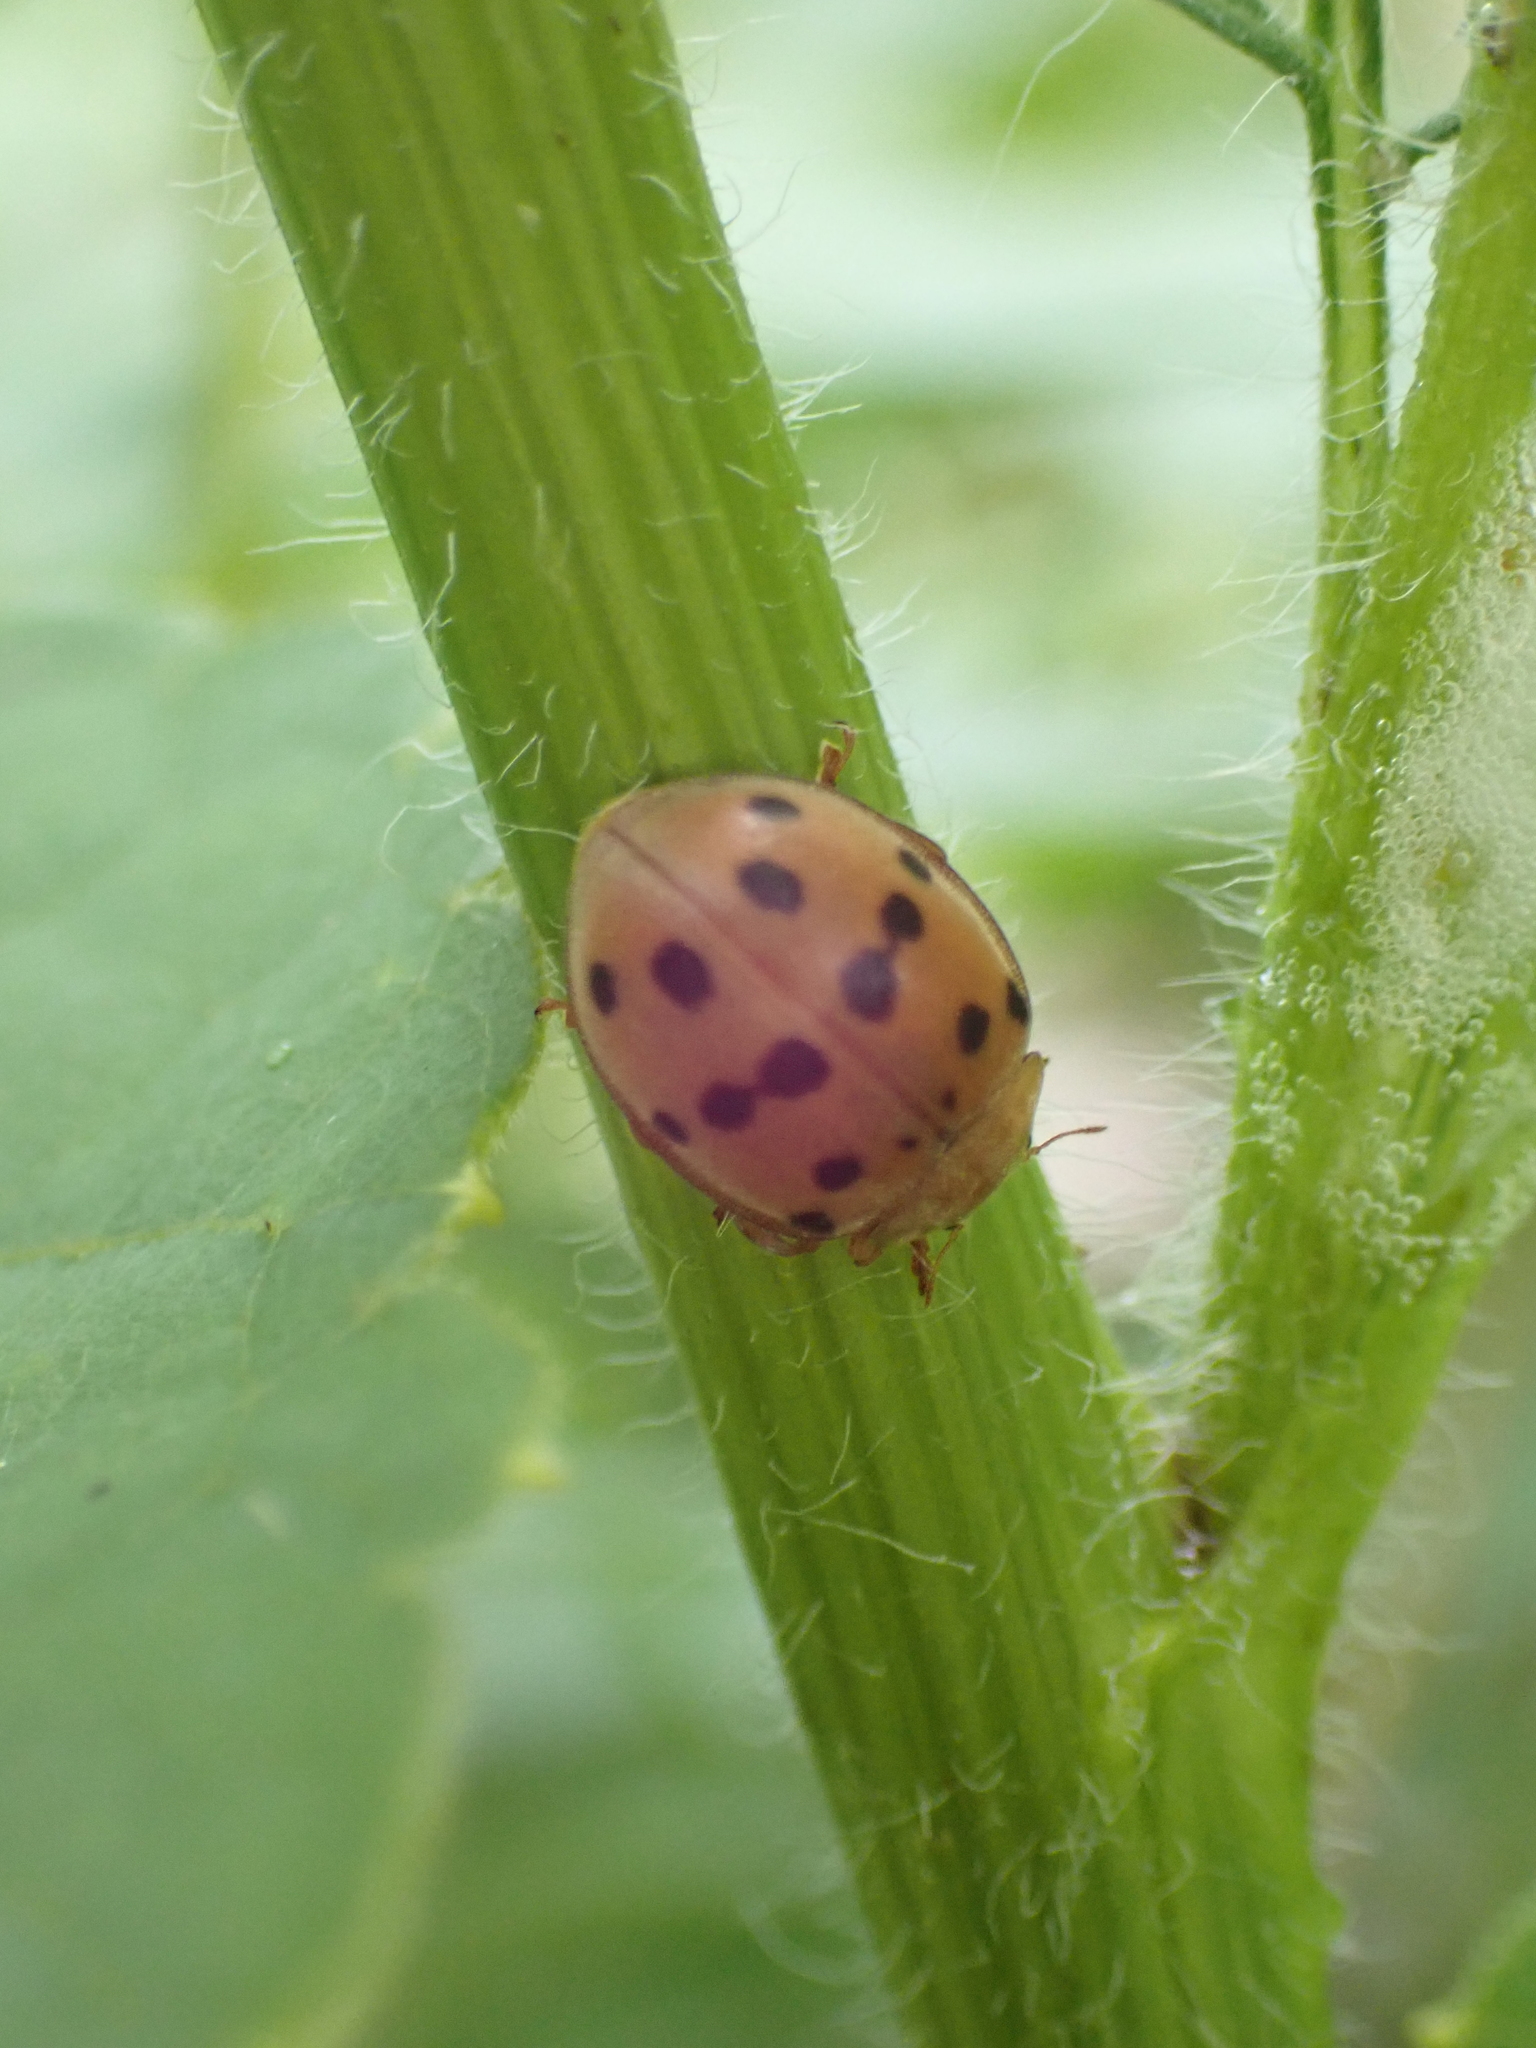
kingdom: Animalia
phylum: Arthropoda
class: Insecta
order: Coleoptera
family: Coccinellidae
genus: Epilachna
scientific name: Epilachna varivestis
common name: Ladybird beetle
